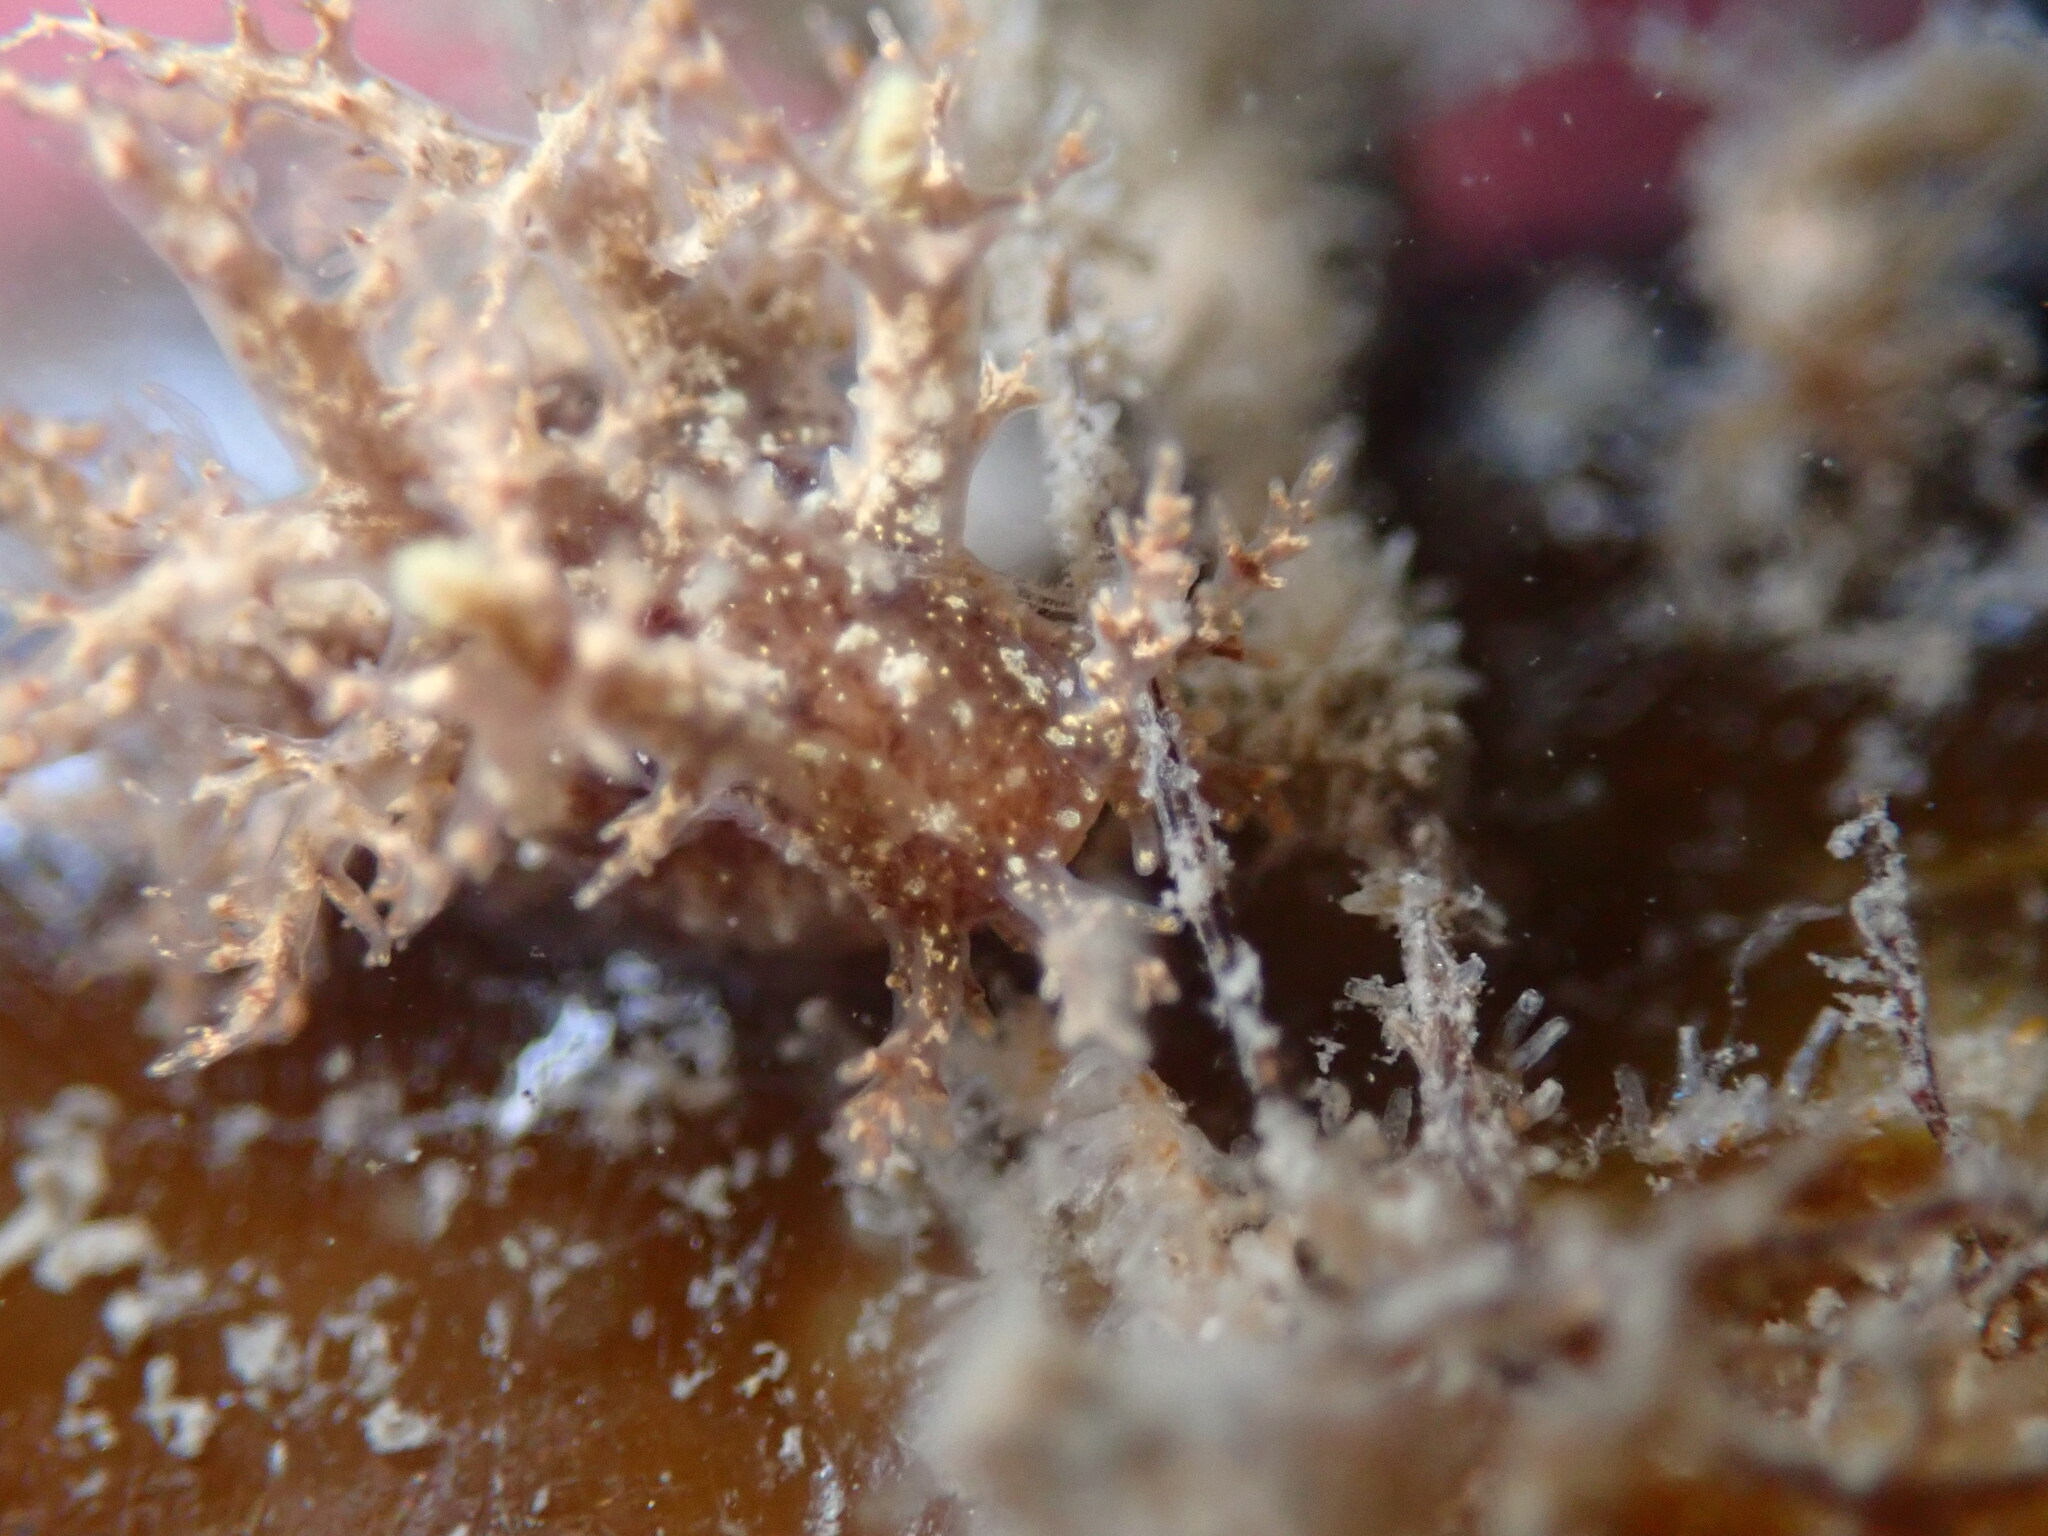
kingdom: Animalia
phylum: Mollusca
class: Gastropoda
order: Nudibranchia
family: Dendronotidae
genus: Dendronotus
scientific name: Dendronotus venustus
